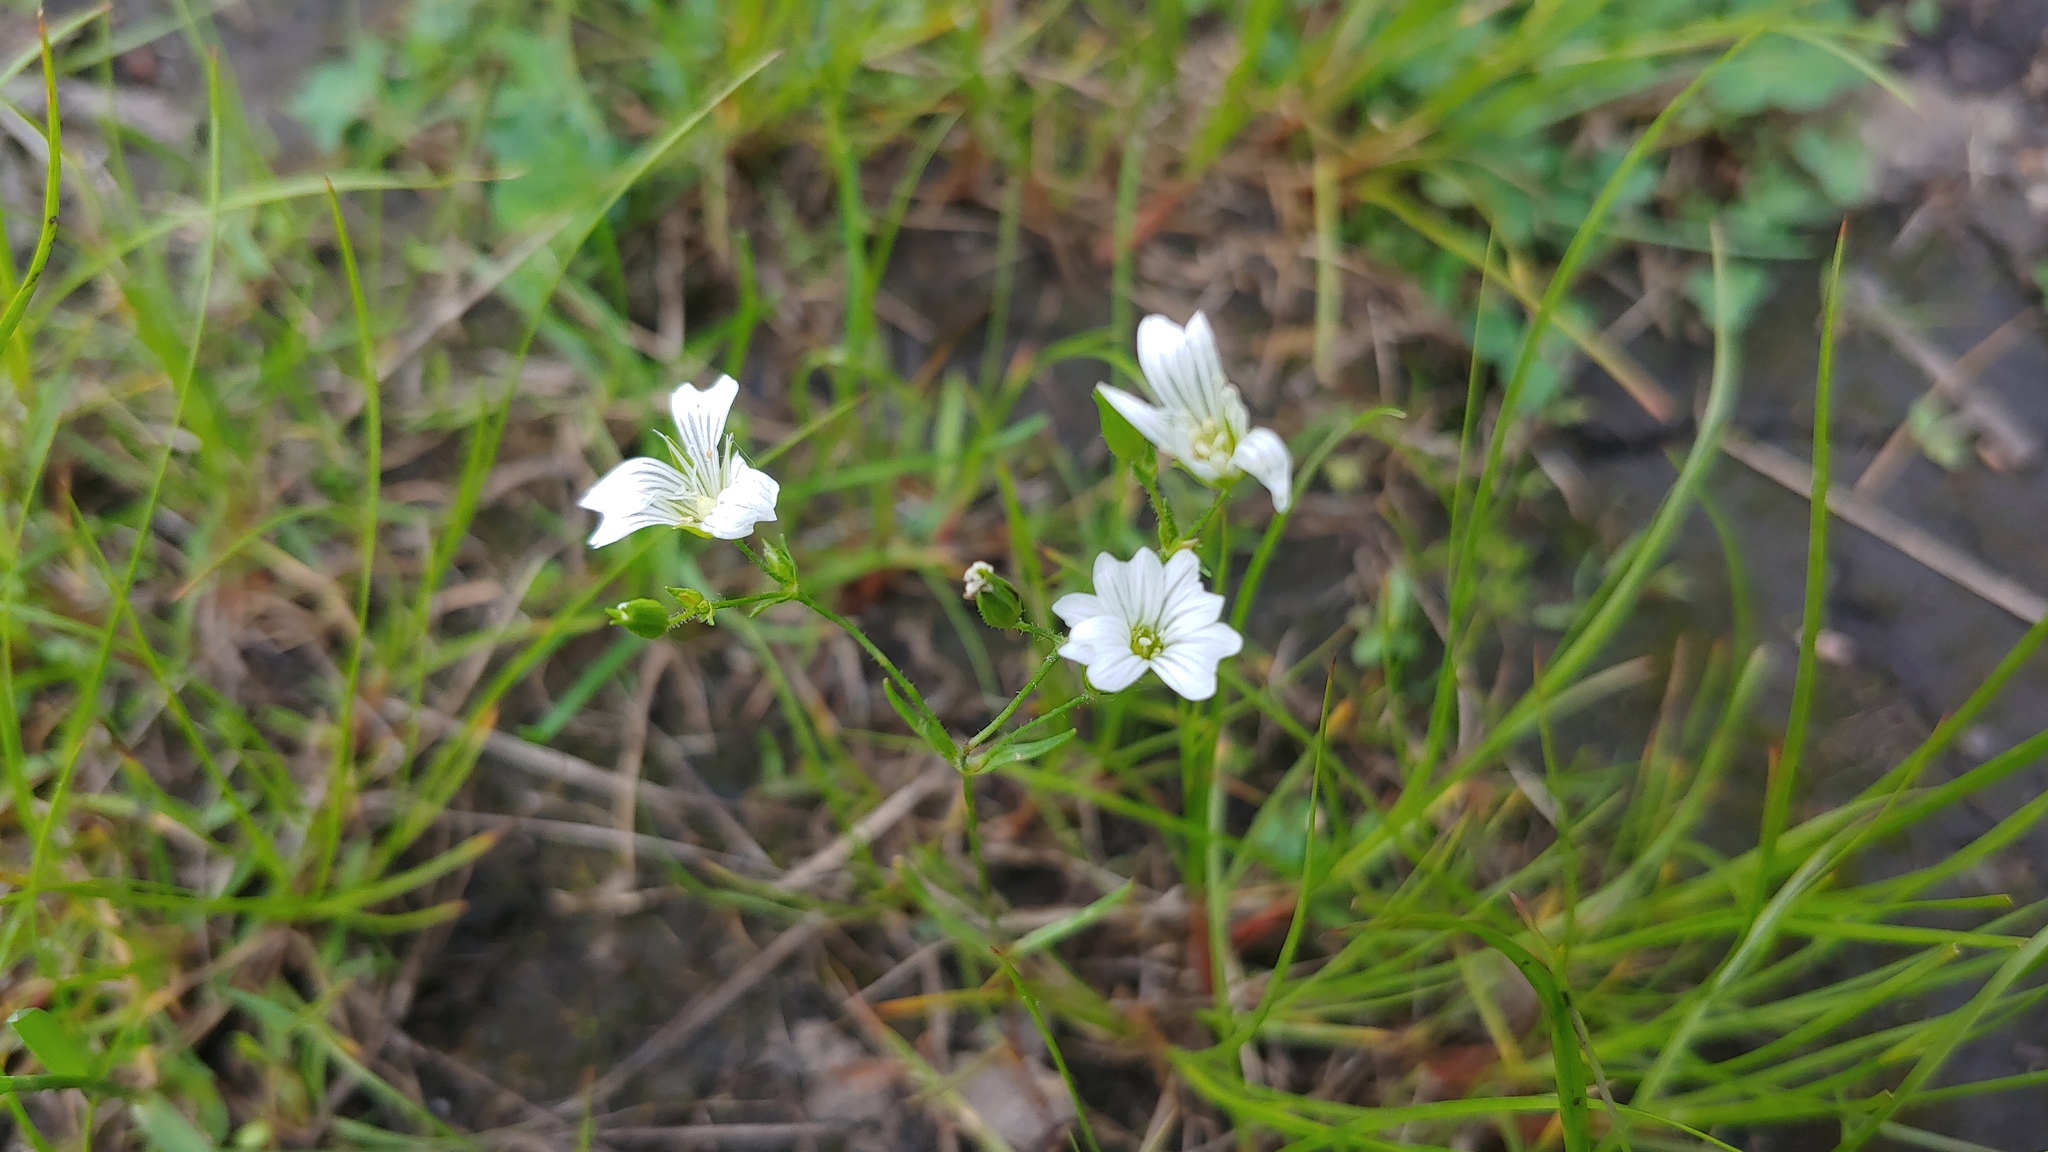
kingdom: Plantae
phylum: Tracheophyta
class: Magnoliopsida
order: Caryophyllales
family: Caryophyllaceae
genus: Mononeuria
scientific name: Mononeuria patula
